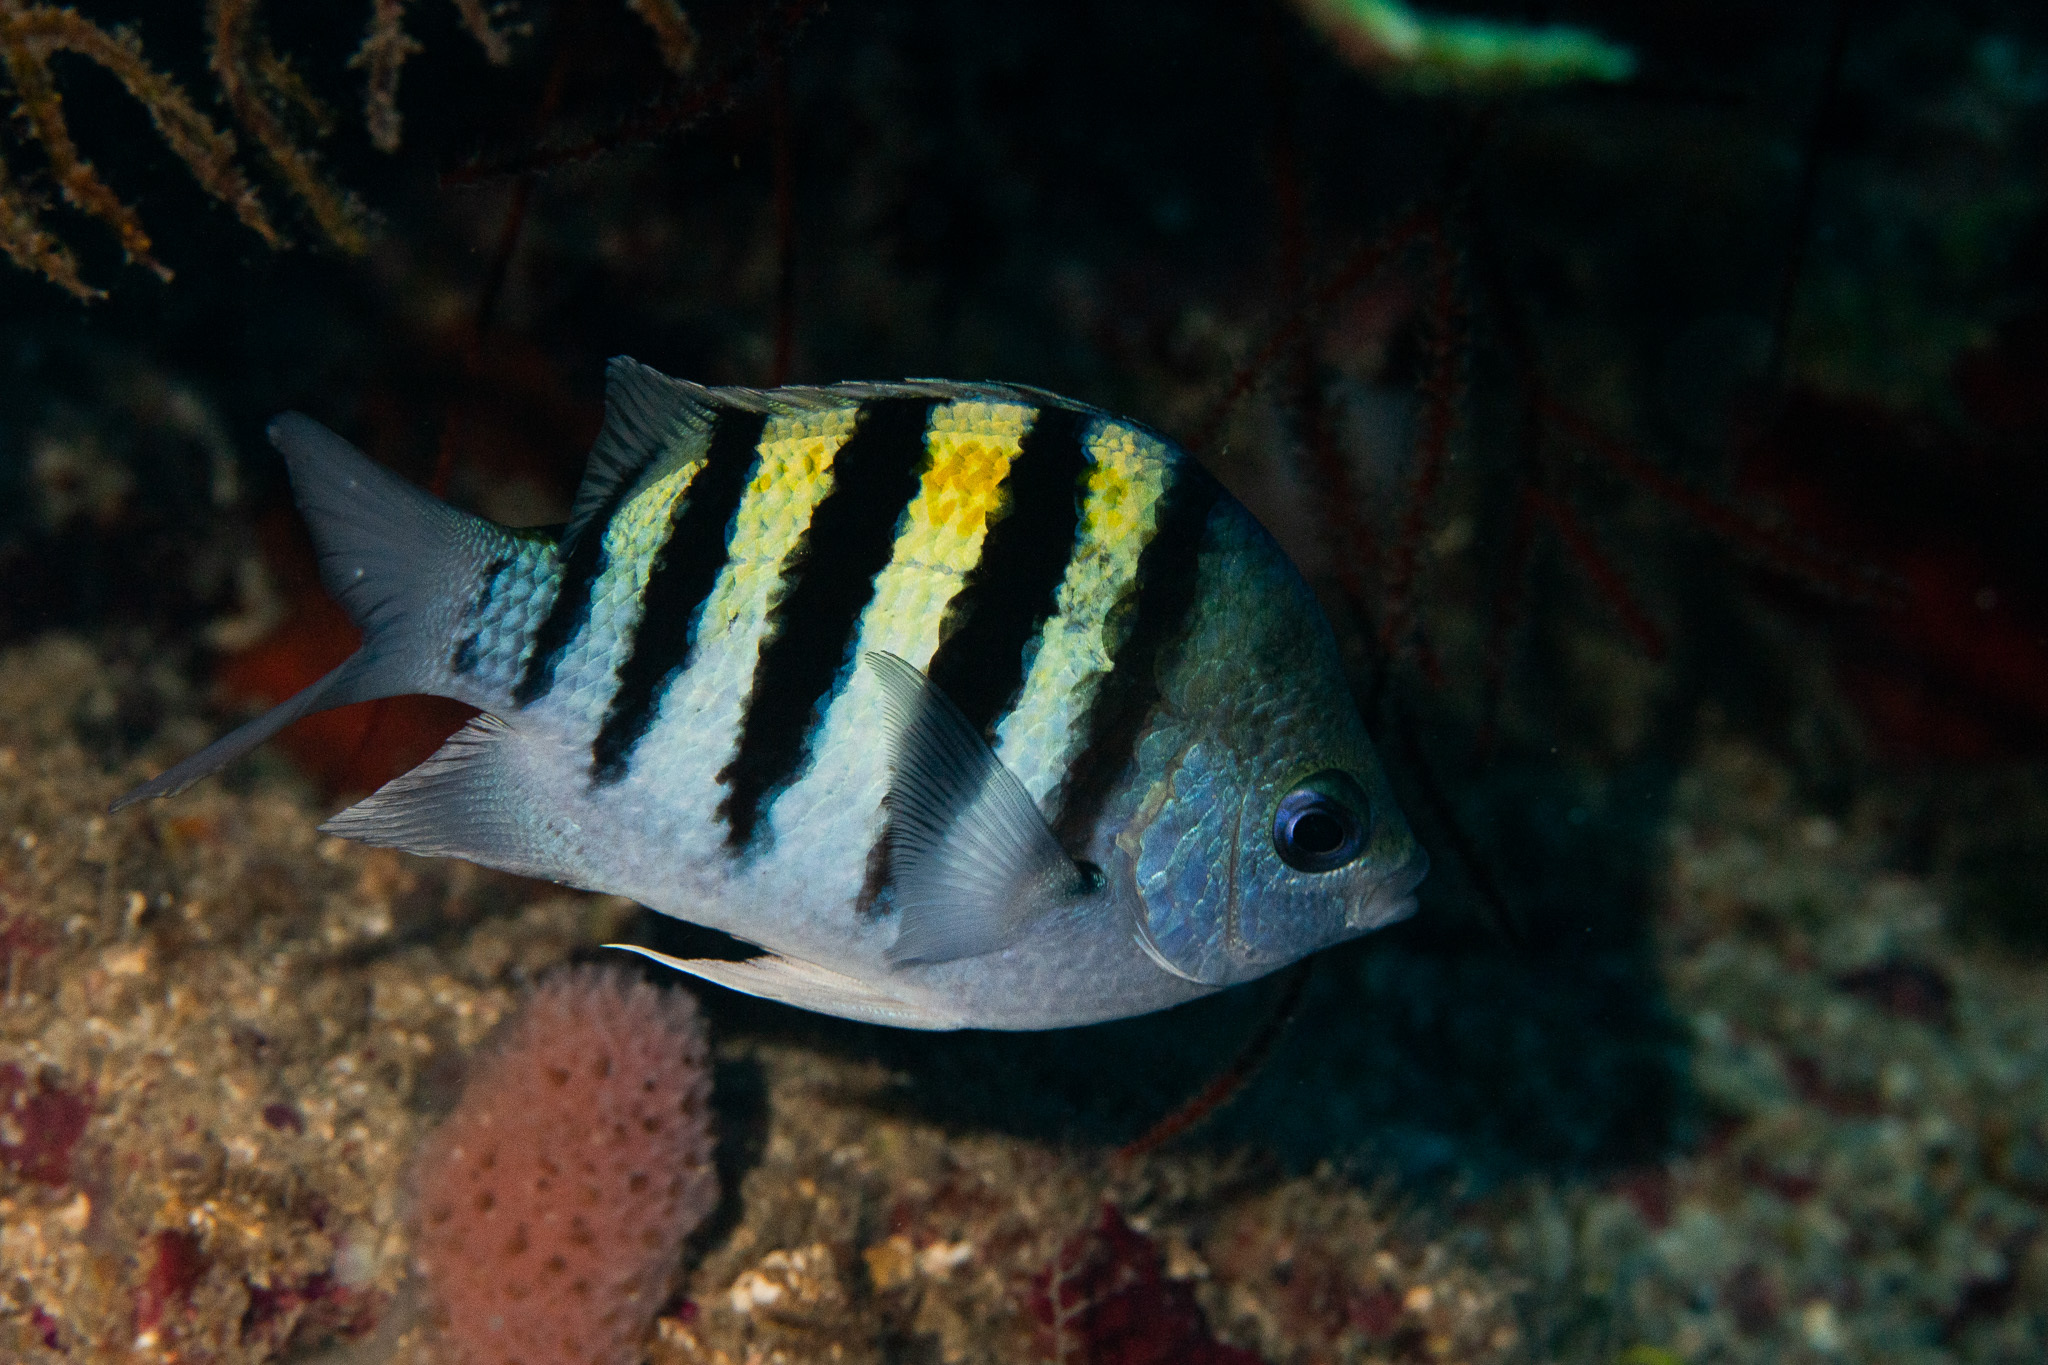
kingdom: Animalia
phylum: Chordata
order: Perciformes
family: Pomacentridae
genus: Abudefduf
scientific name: Abudefduf saxatilis
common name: Sergeant major
